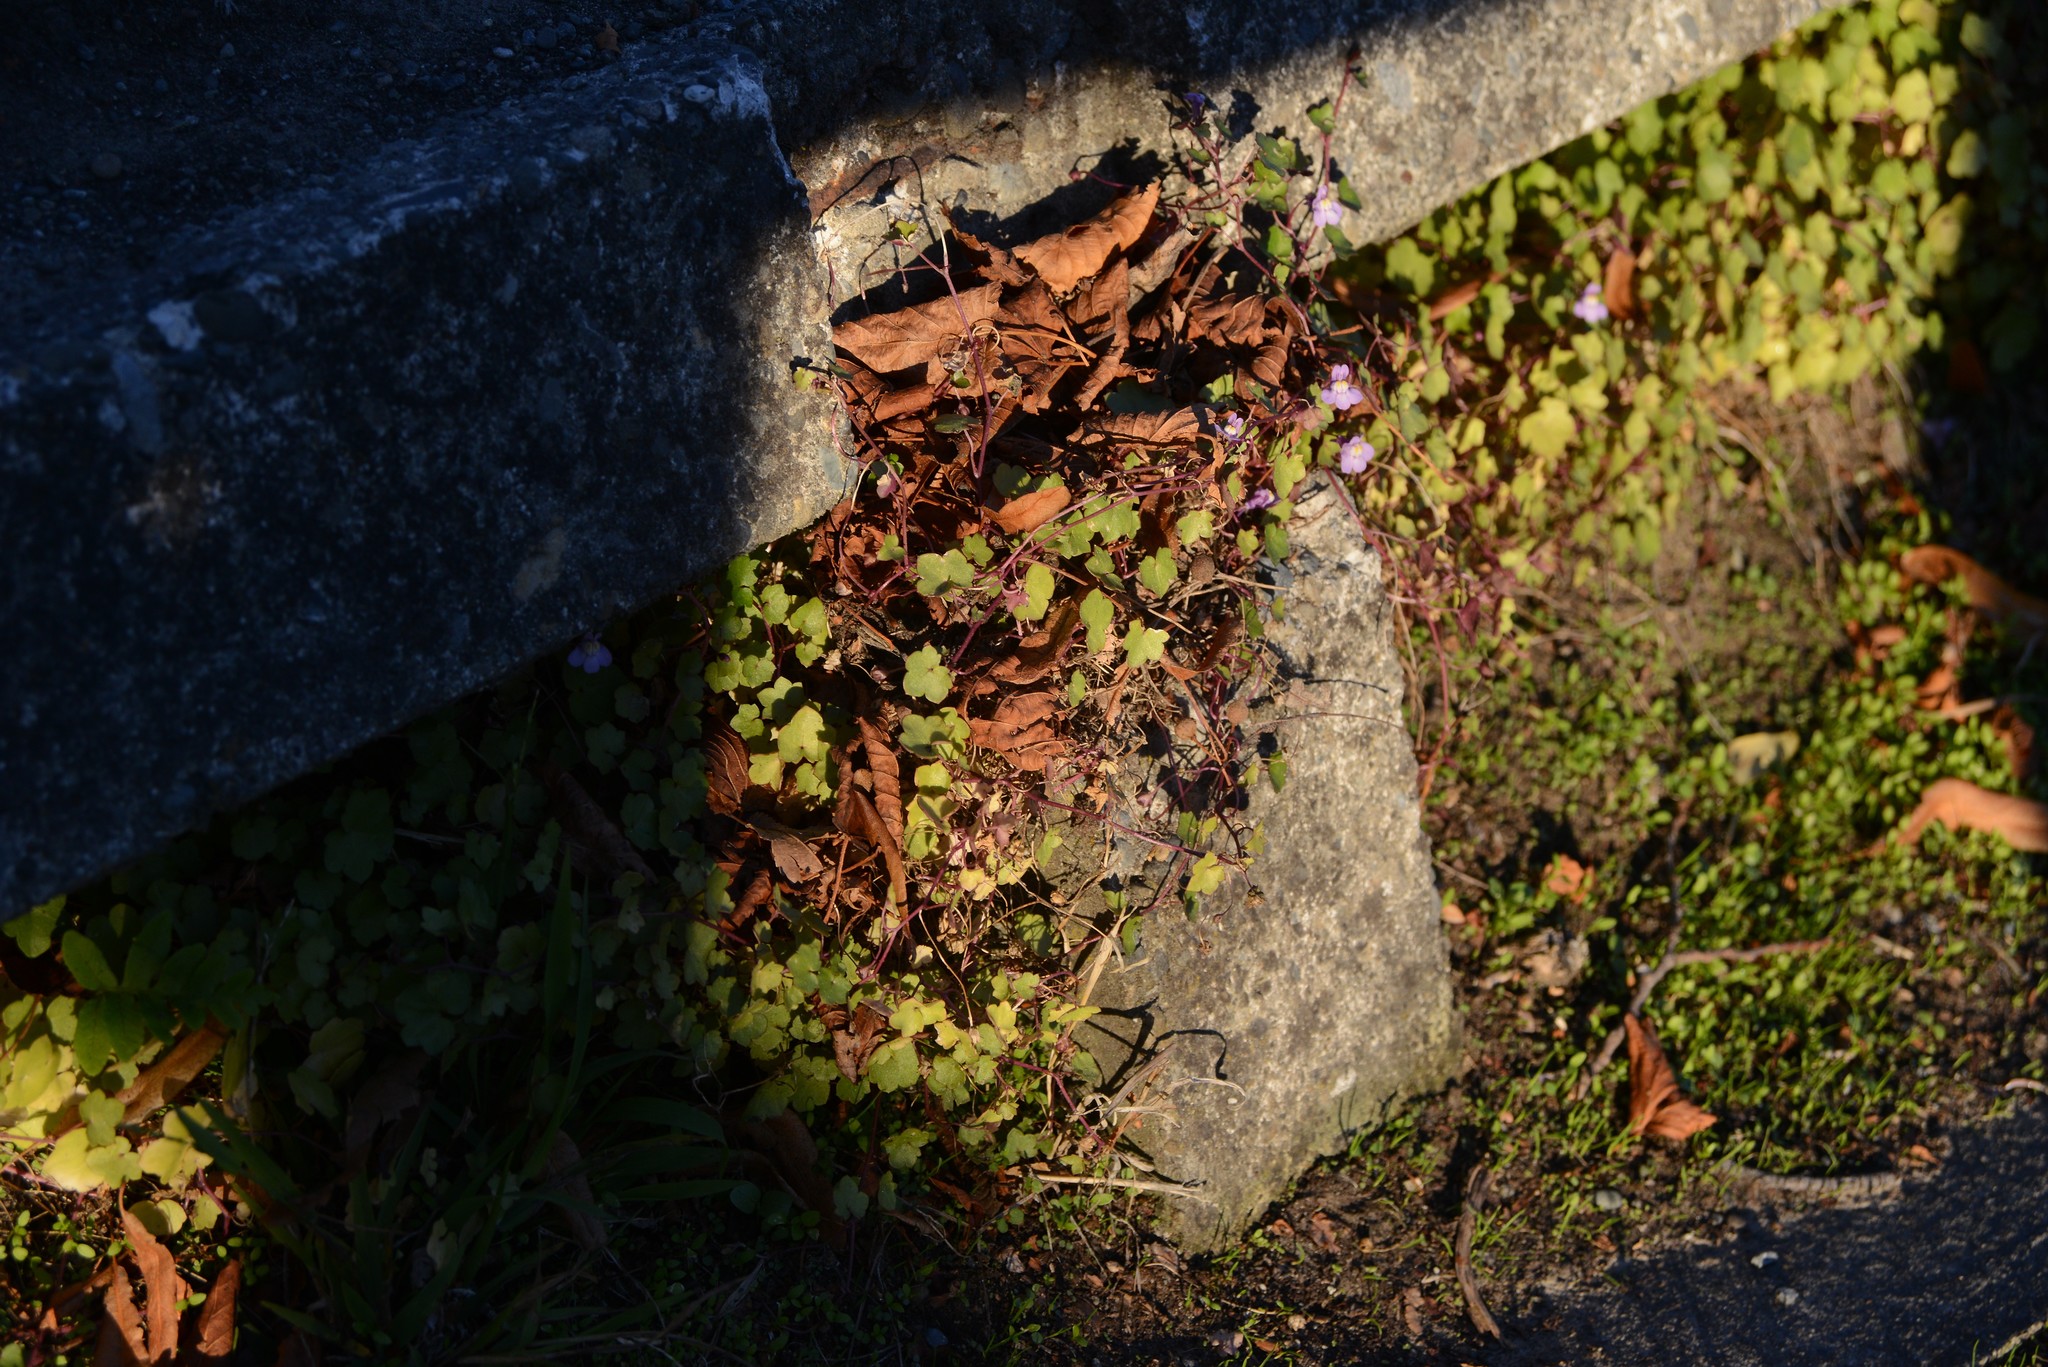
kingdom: Plantae
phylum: Tracheophyta
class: Magnoliopsida
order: Lamiales
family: Plantaginaceae
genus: Cymbalaria
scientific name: Cymbalaria muralis
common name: Ivy-leaved toadflax
